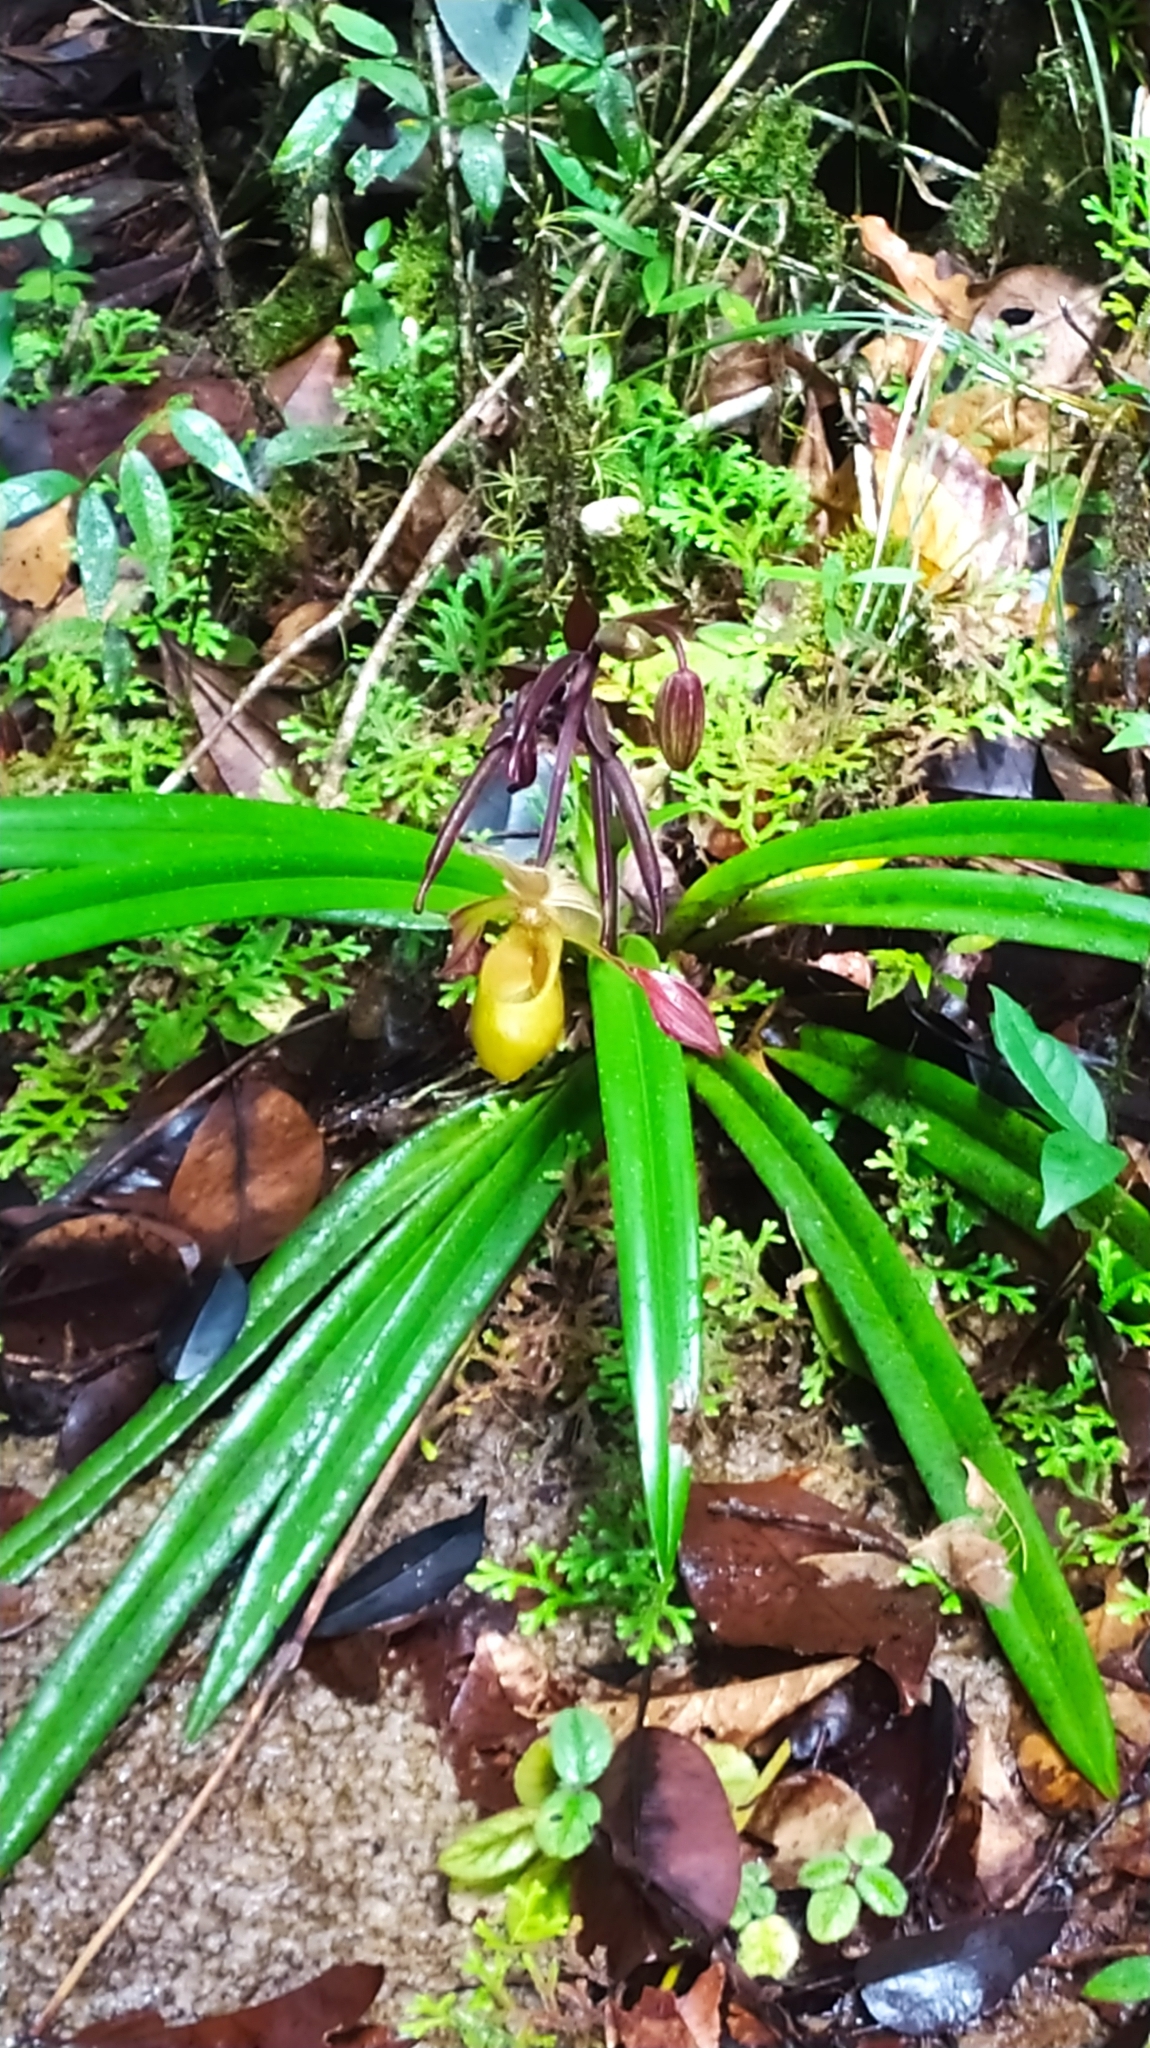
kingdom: Plantae
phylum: Tracheophyta
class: Liliopsida
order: Asparagales
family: Orchidaceae
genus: Phragmipedium
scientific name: Phragmipedium lindleyanum
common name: Lindley's phragmipedium
